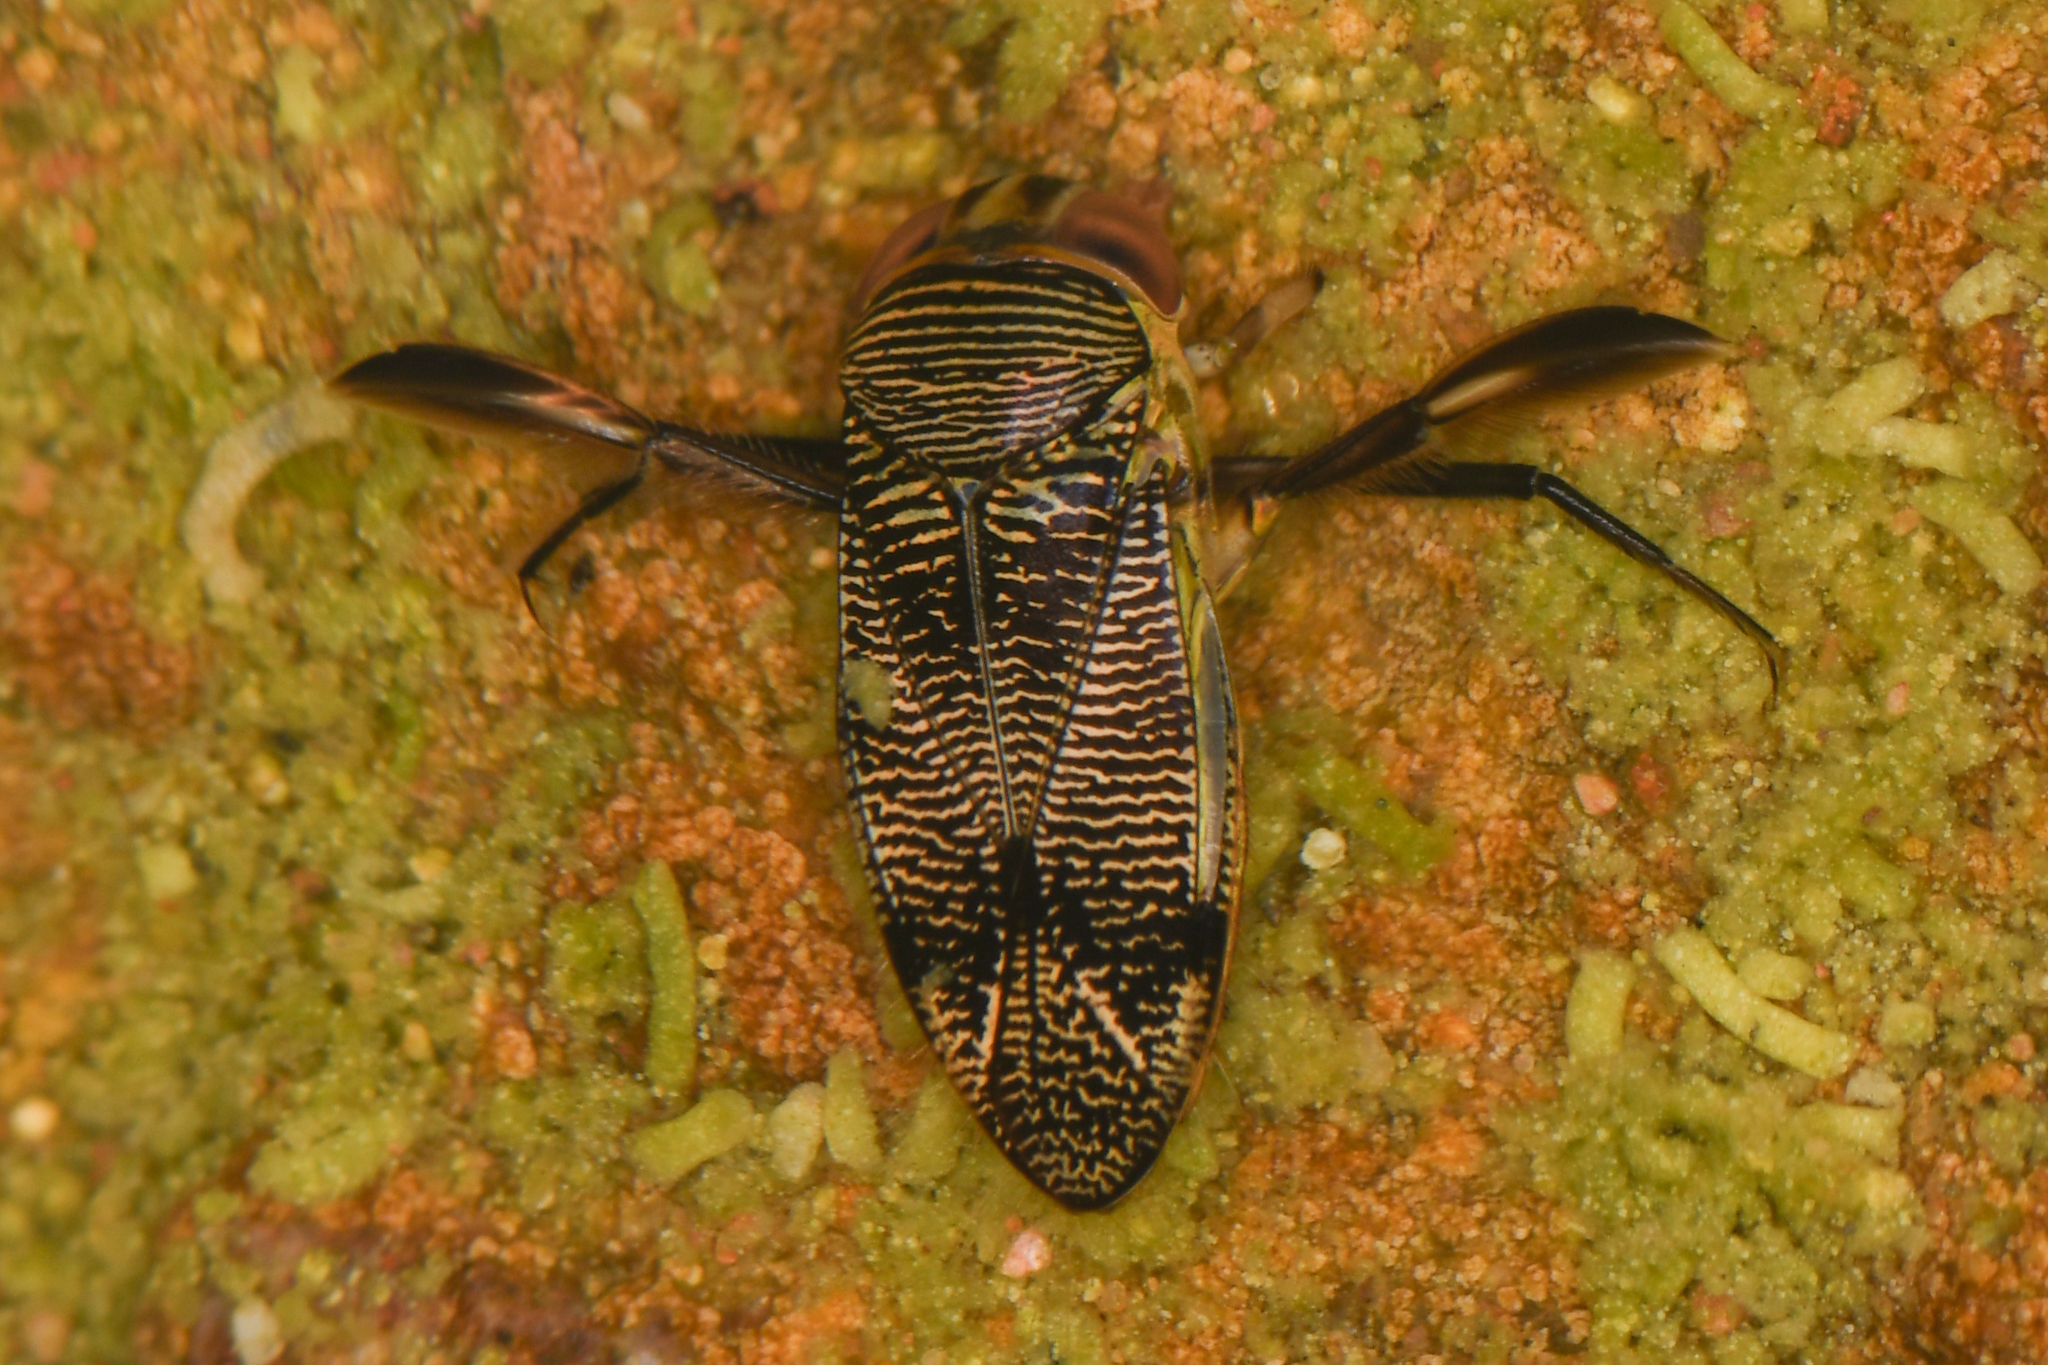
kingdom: Animalia
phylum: Arthropoda
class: Insecta
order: Hemiptera
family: Corixidae
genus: Graptocorixa
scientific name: Graptocorixa
